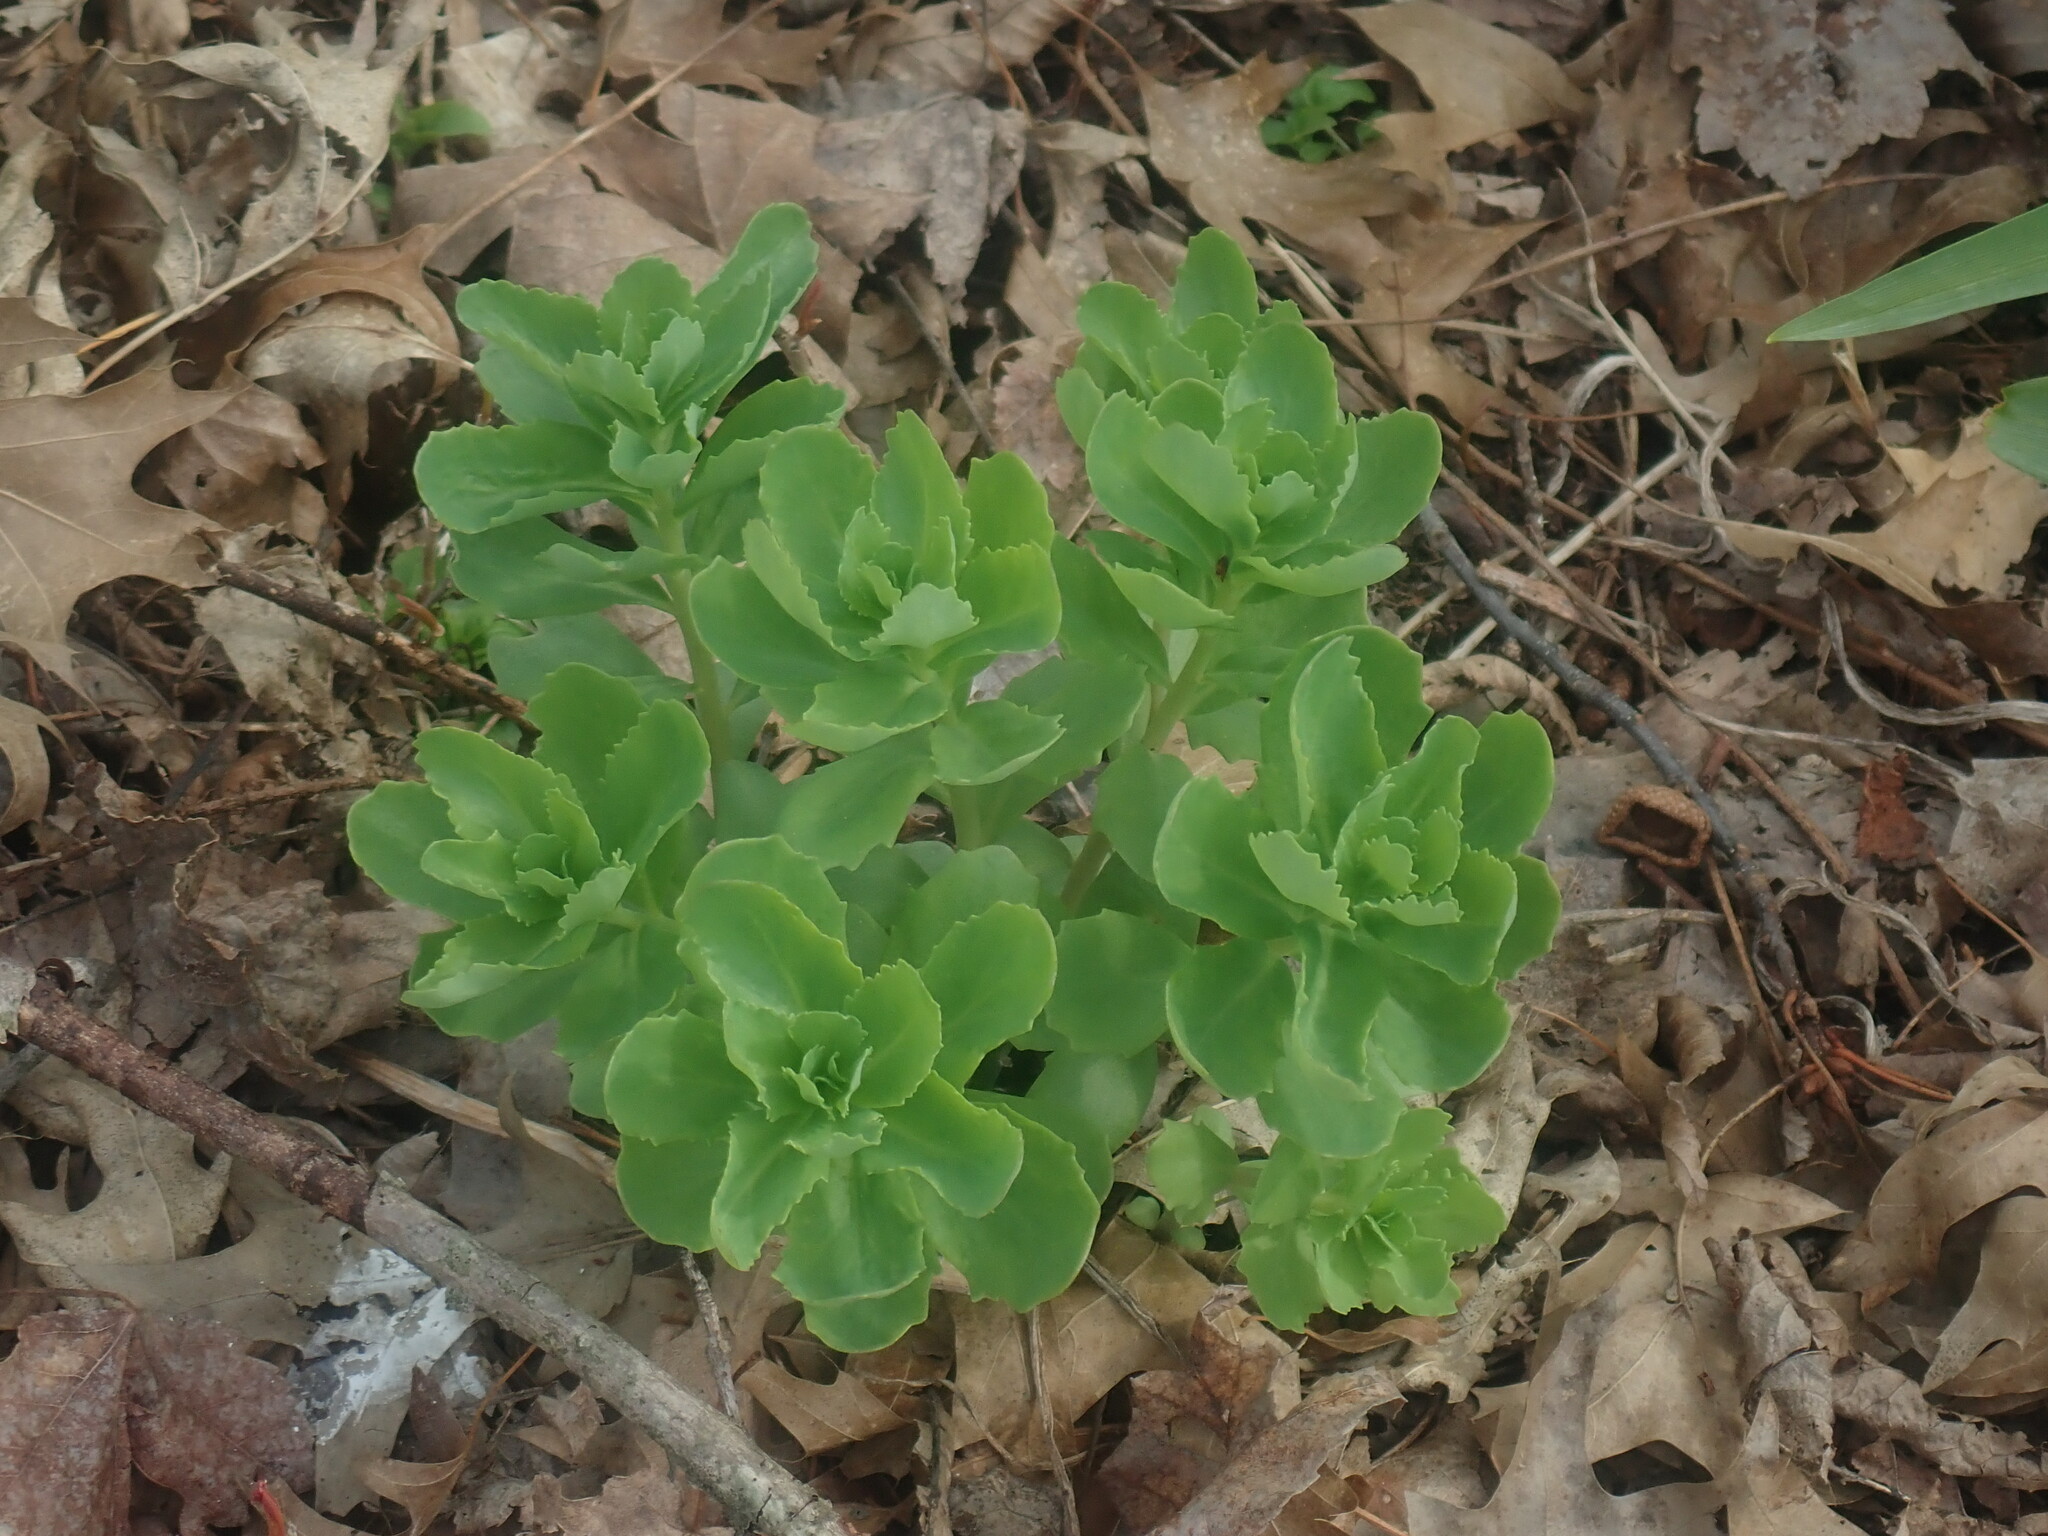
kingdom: Plantae
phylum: Tracheophyta
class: Magnoliopsida
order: Saxifragales
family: Crassulaceae
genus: Hylotelephium
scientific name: Hylotelephium telephium
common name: Live-forever
